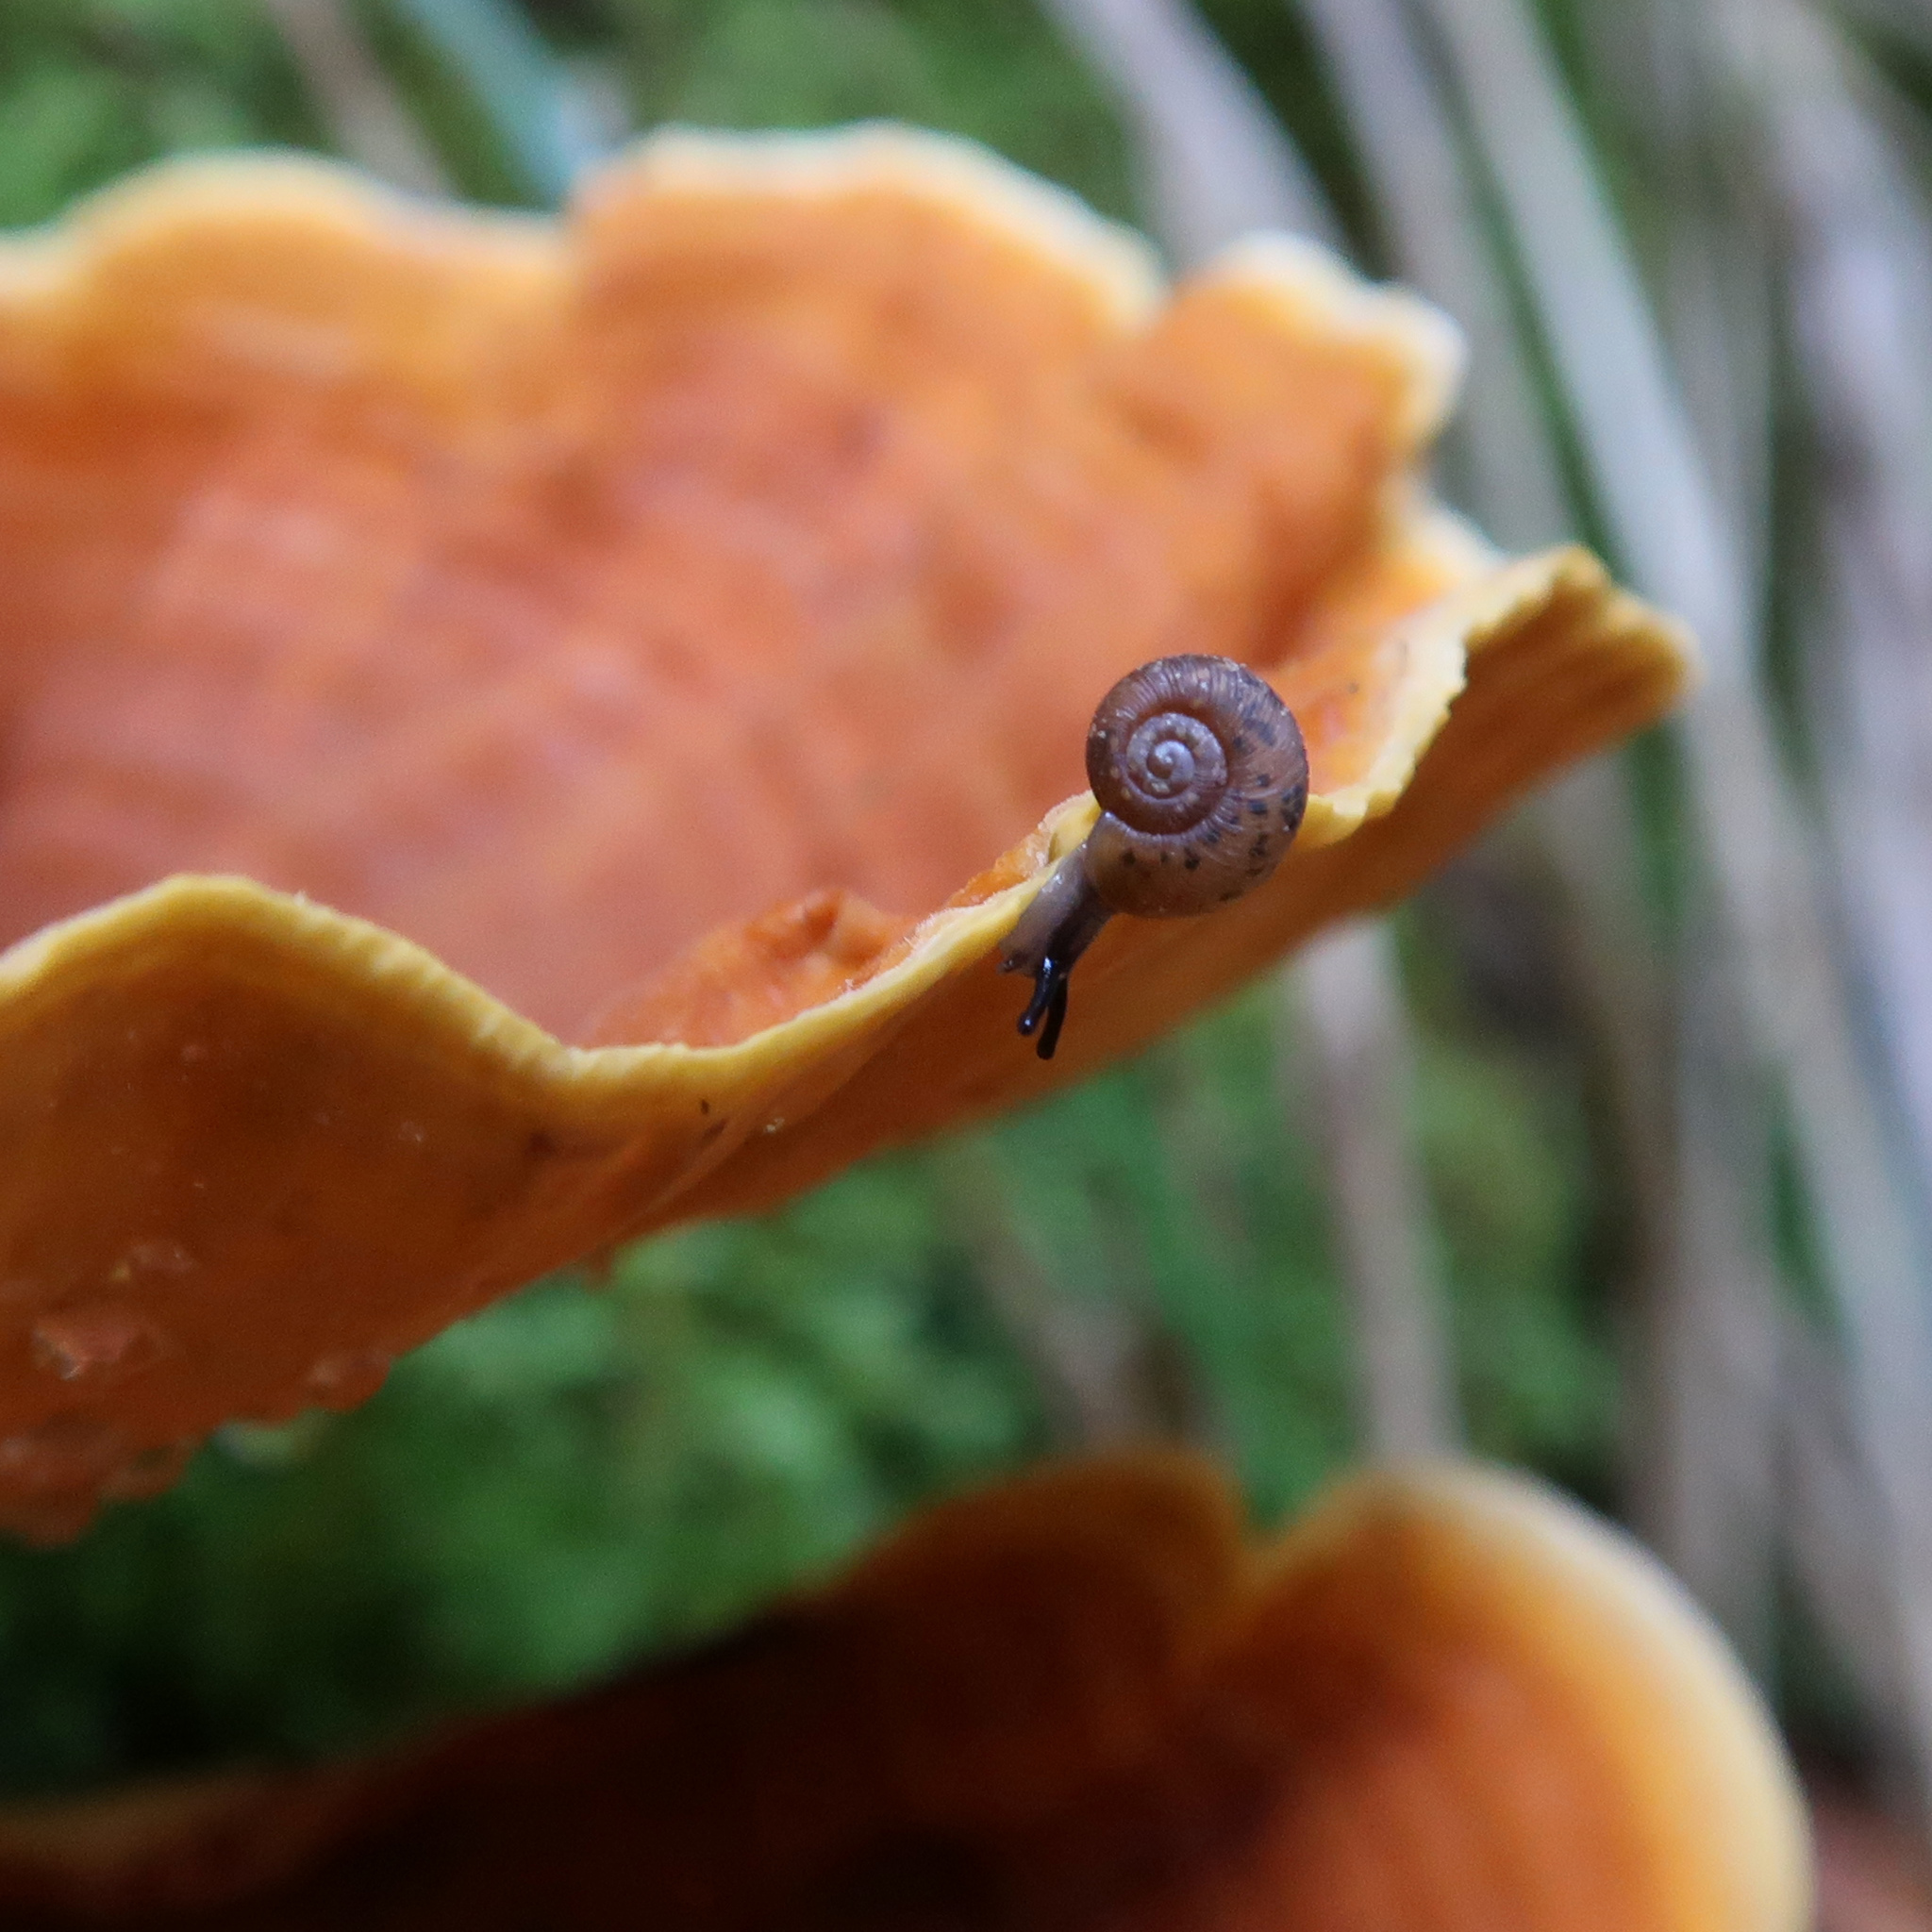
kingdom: Animalia
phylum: Mollusca
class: Gastropoda
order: Stylommatophora
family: Charopidae
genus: Stenacapha
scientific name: Stenacapha hamiltoni
